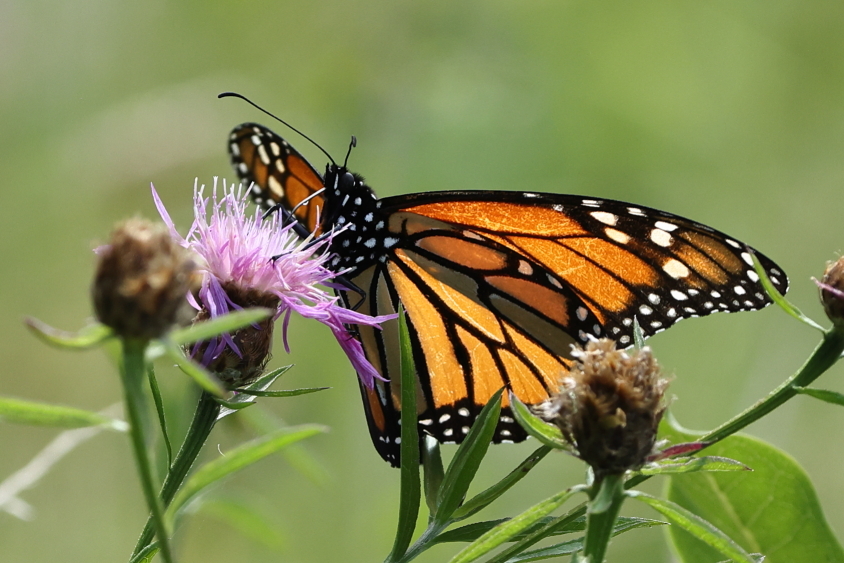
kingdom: Animalia
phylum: Arthropoda
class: Insecta
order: Lepidoptera
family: Nymphalidae
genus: Danaus
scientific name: Danaus plexippus
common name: Monarch
